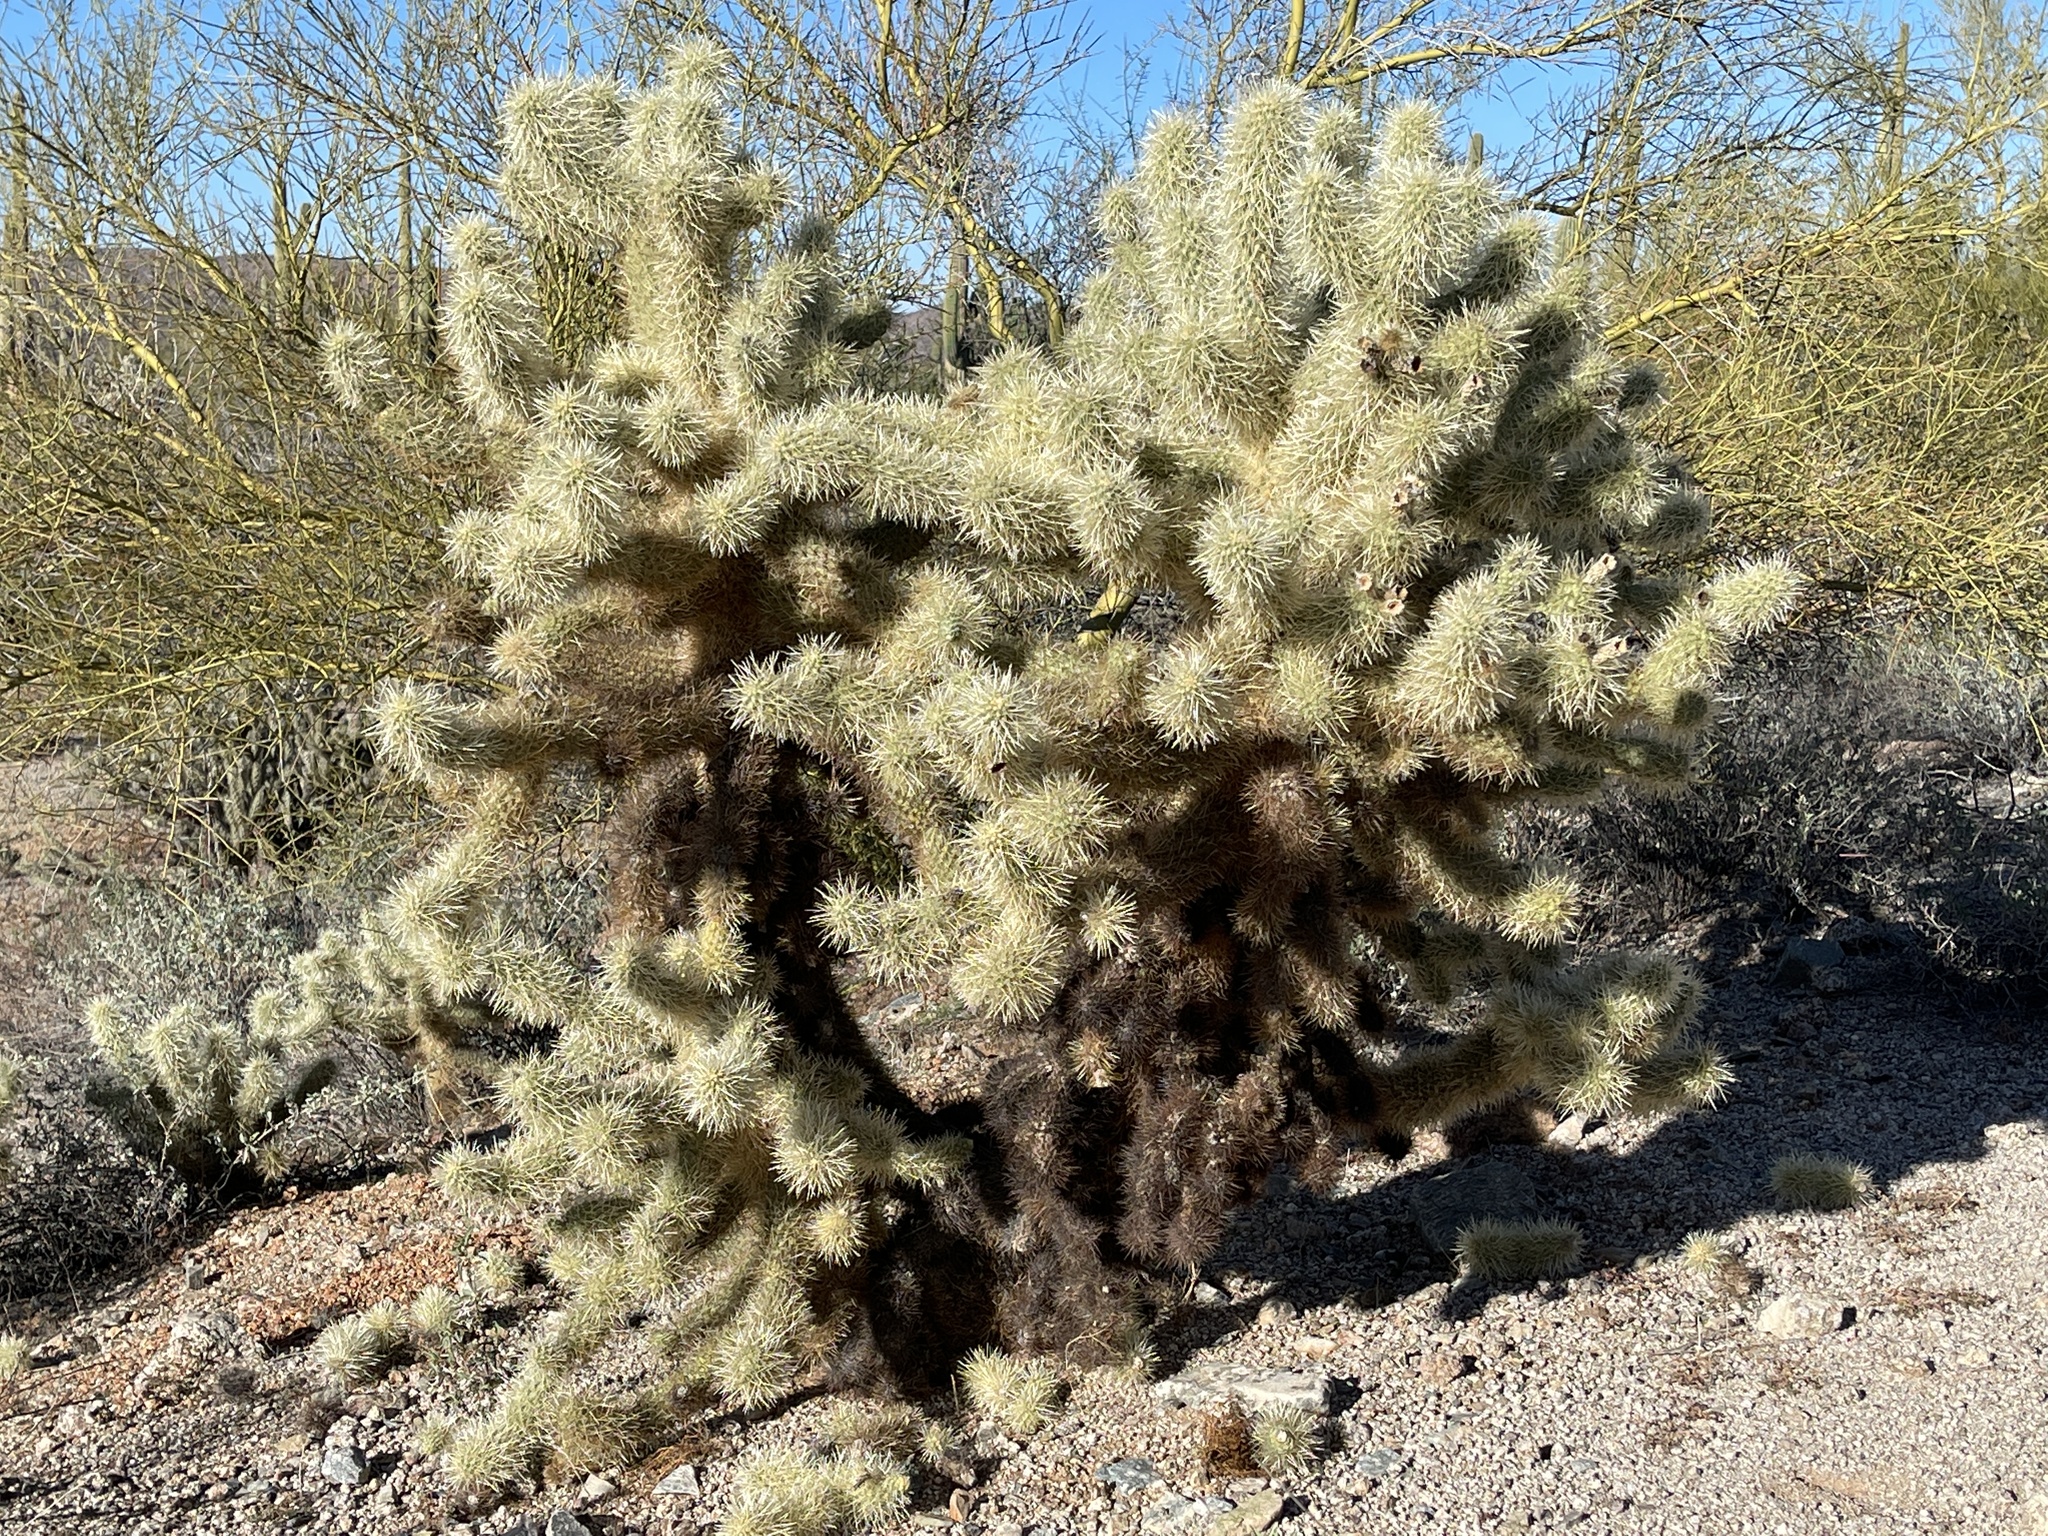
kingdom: Plantae
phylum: Tracheophyta
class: Magnoliopsida
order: Caryophyllales
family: Cactaceae
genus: Cylindropuntia
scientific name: Cylindropuntia fosbergii
